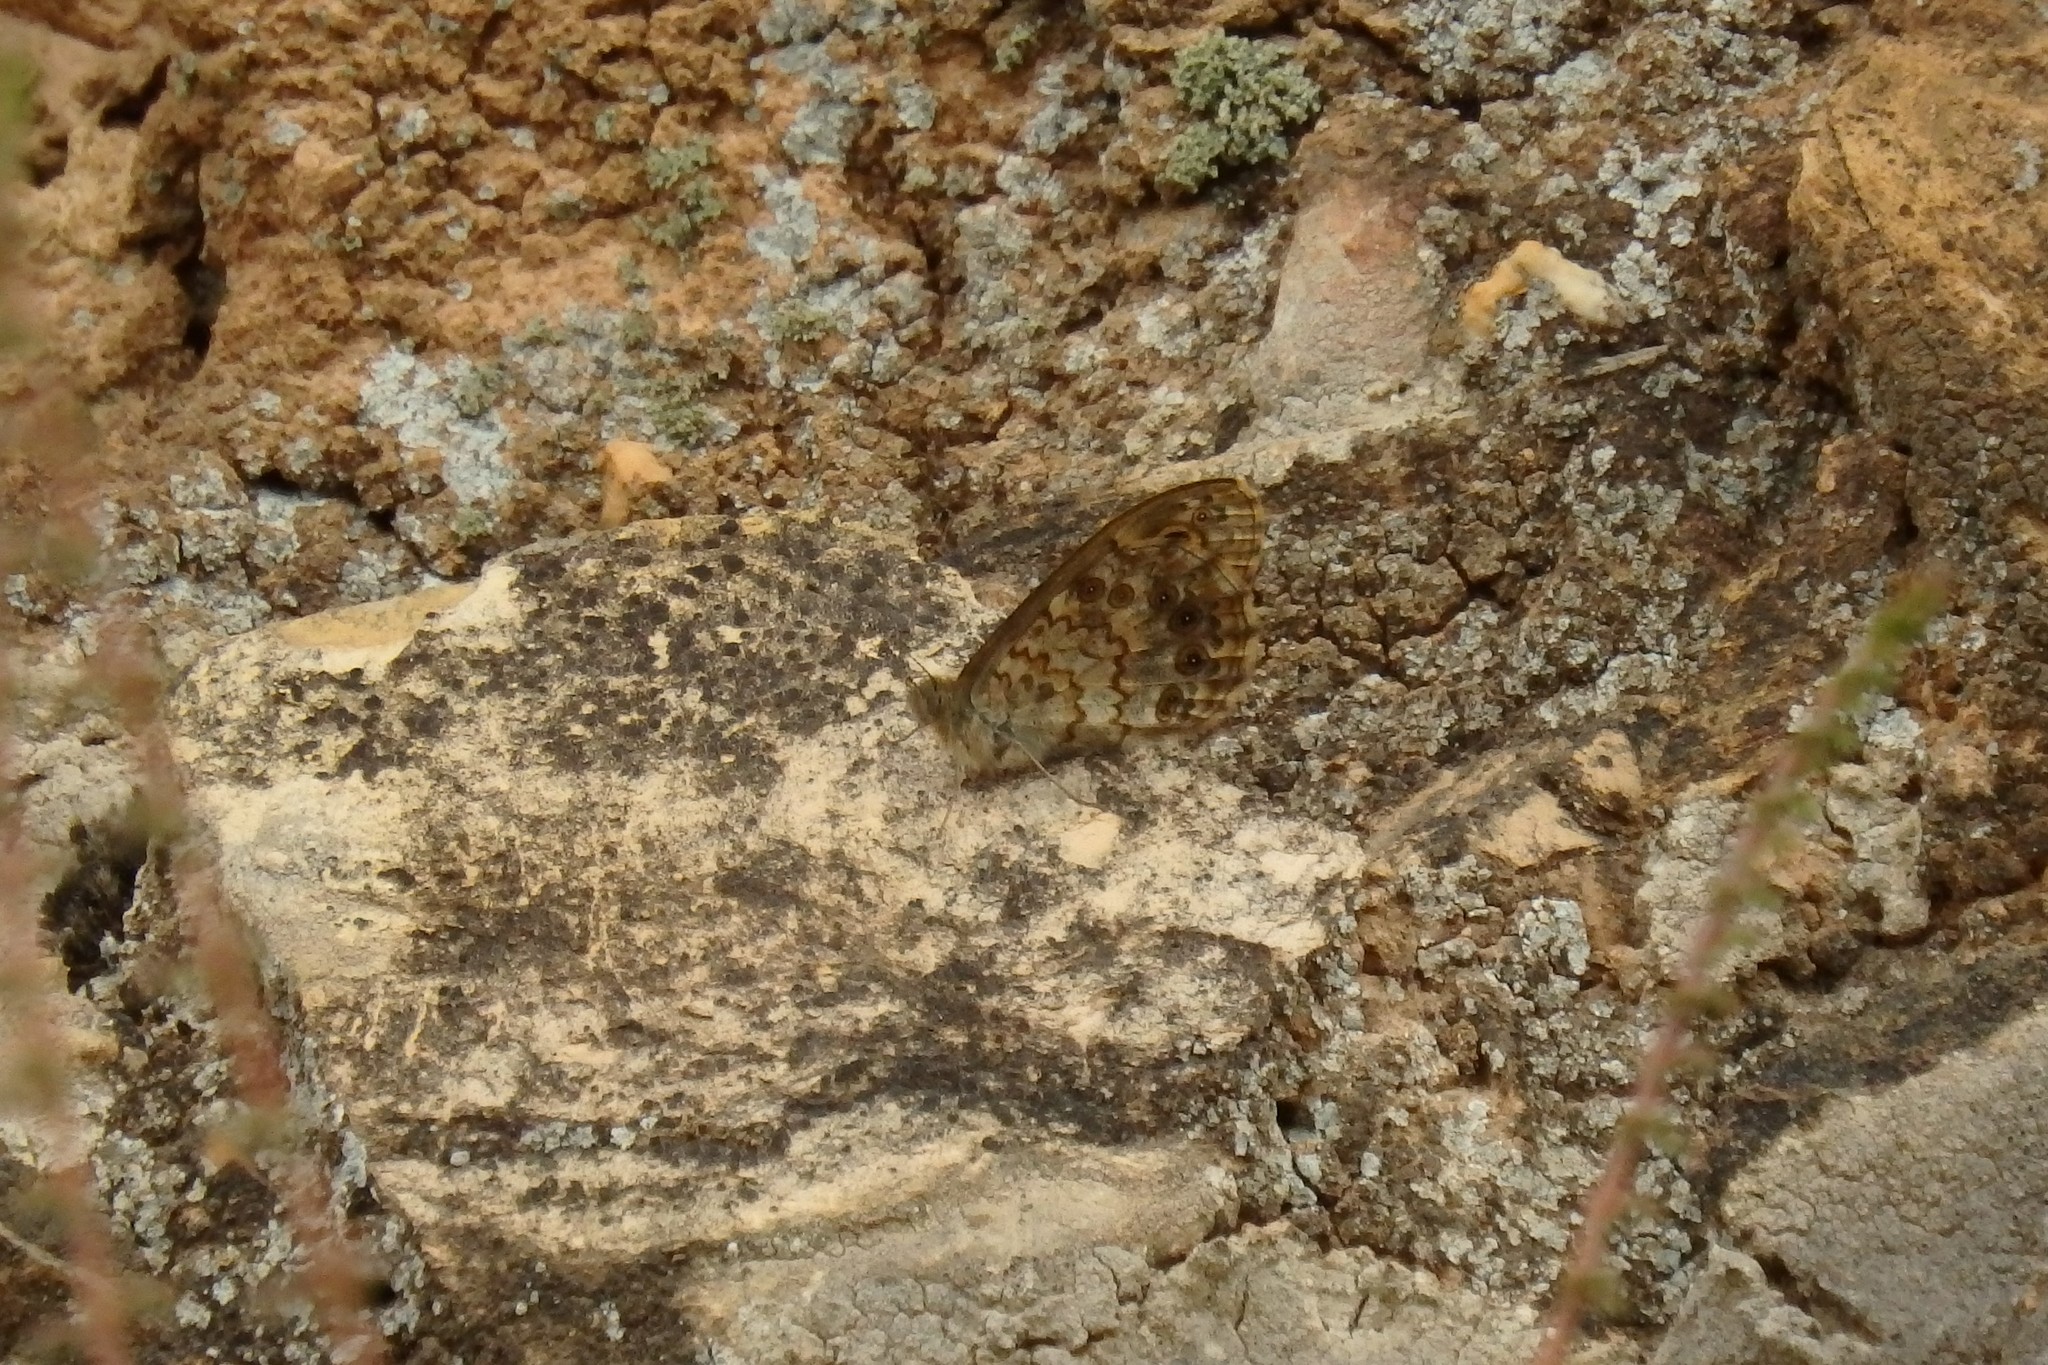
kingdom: Animalia
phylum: Arthropoda
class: Insecta
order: Lepidoptera
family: Nymphalidae
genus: Pararge
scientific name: Pararge Lasiommata megera
